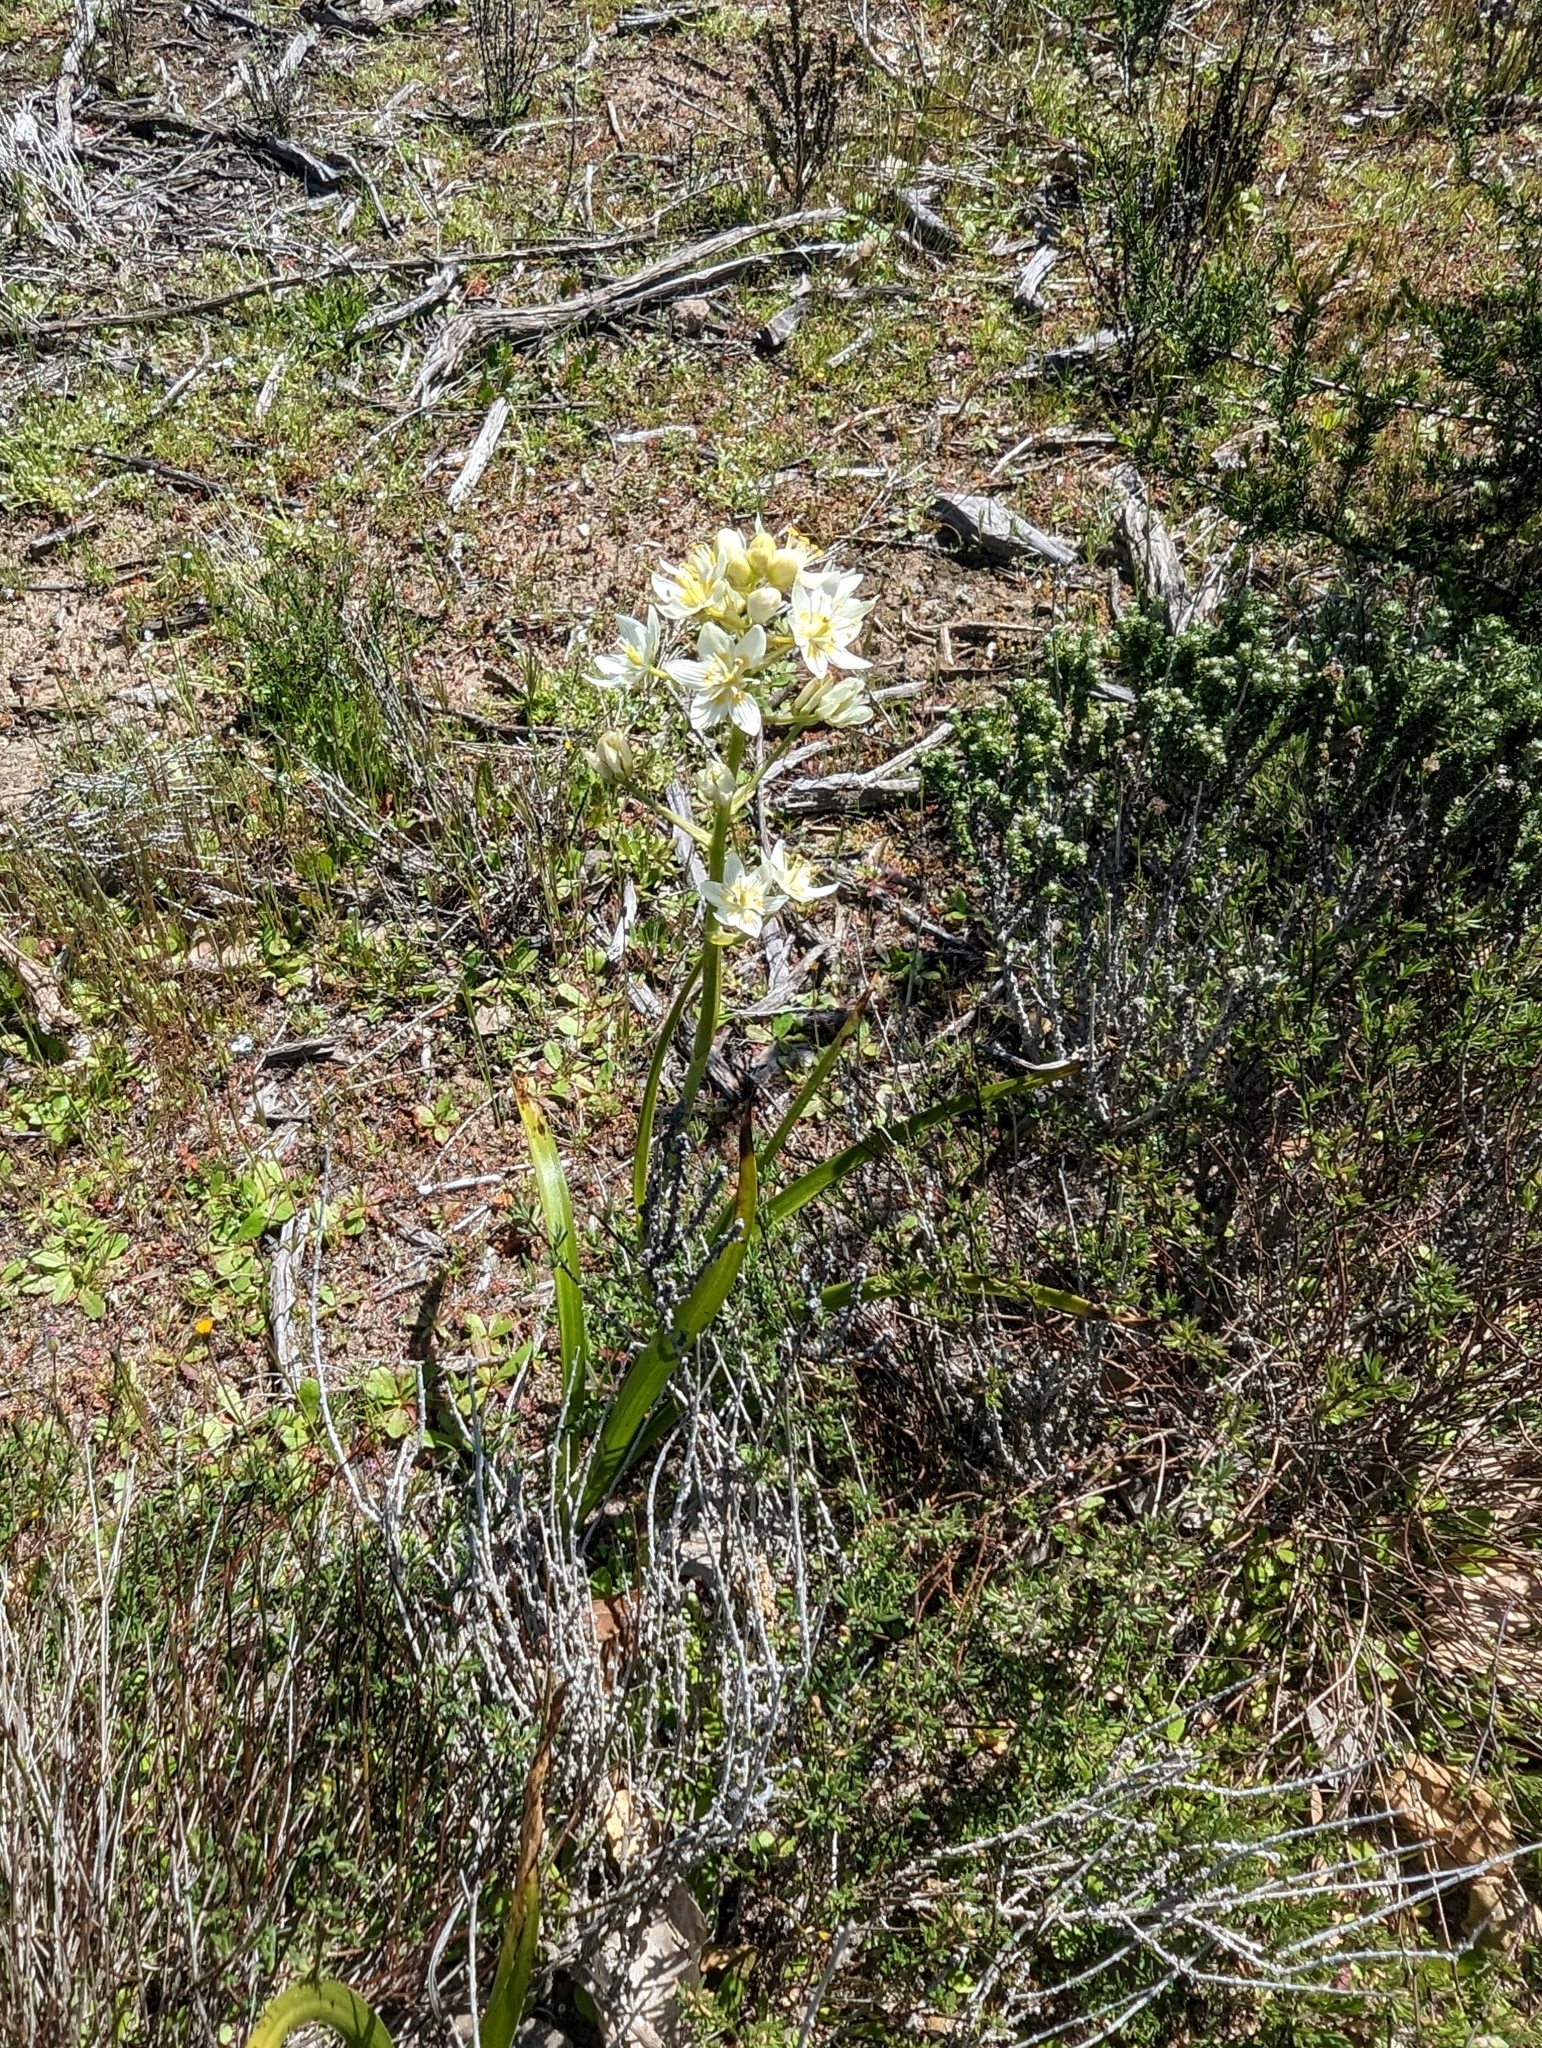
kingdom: Plantae
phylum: Tracheophyta
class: Liliopsida
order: Liliales
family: Melanthiaceae
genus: Toxicoscordion
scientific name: Toxicoscordion fremontii
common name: Fremont's death camas
